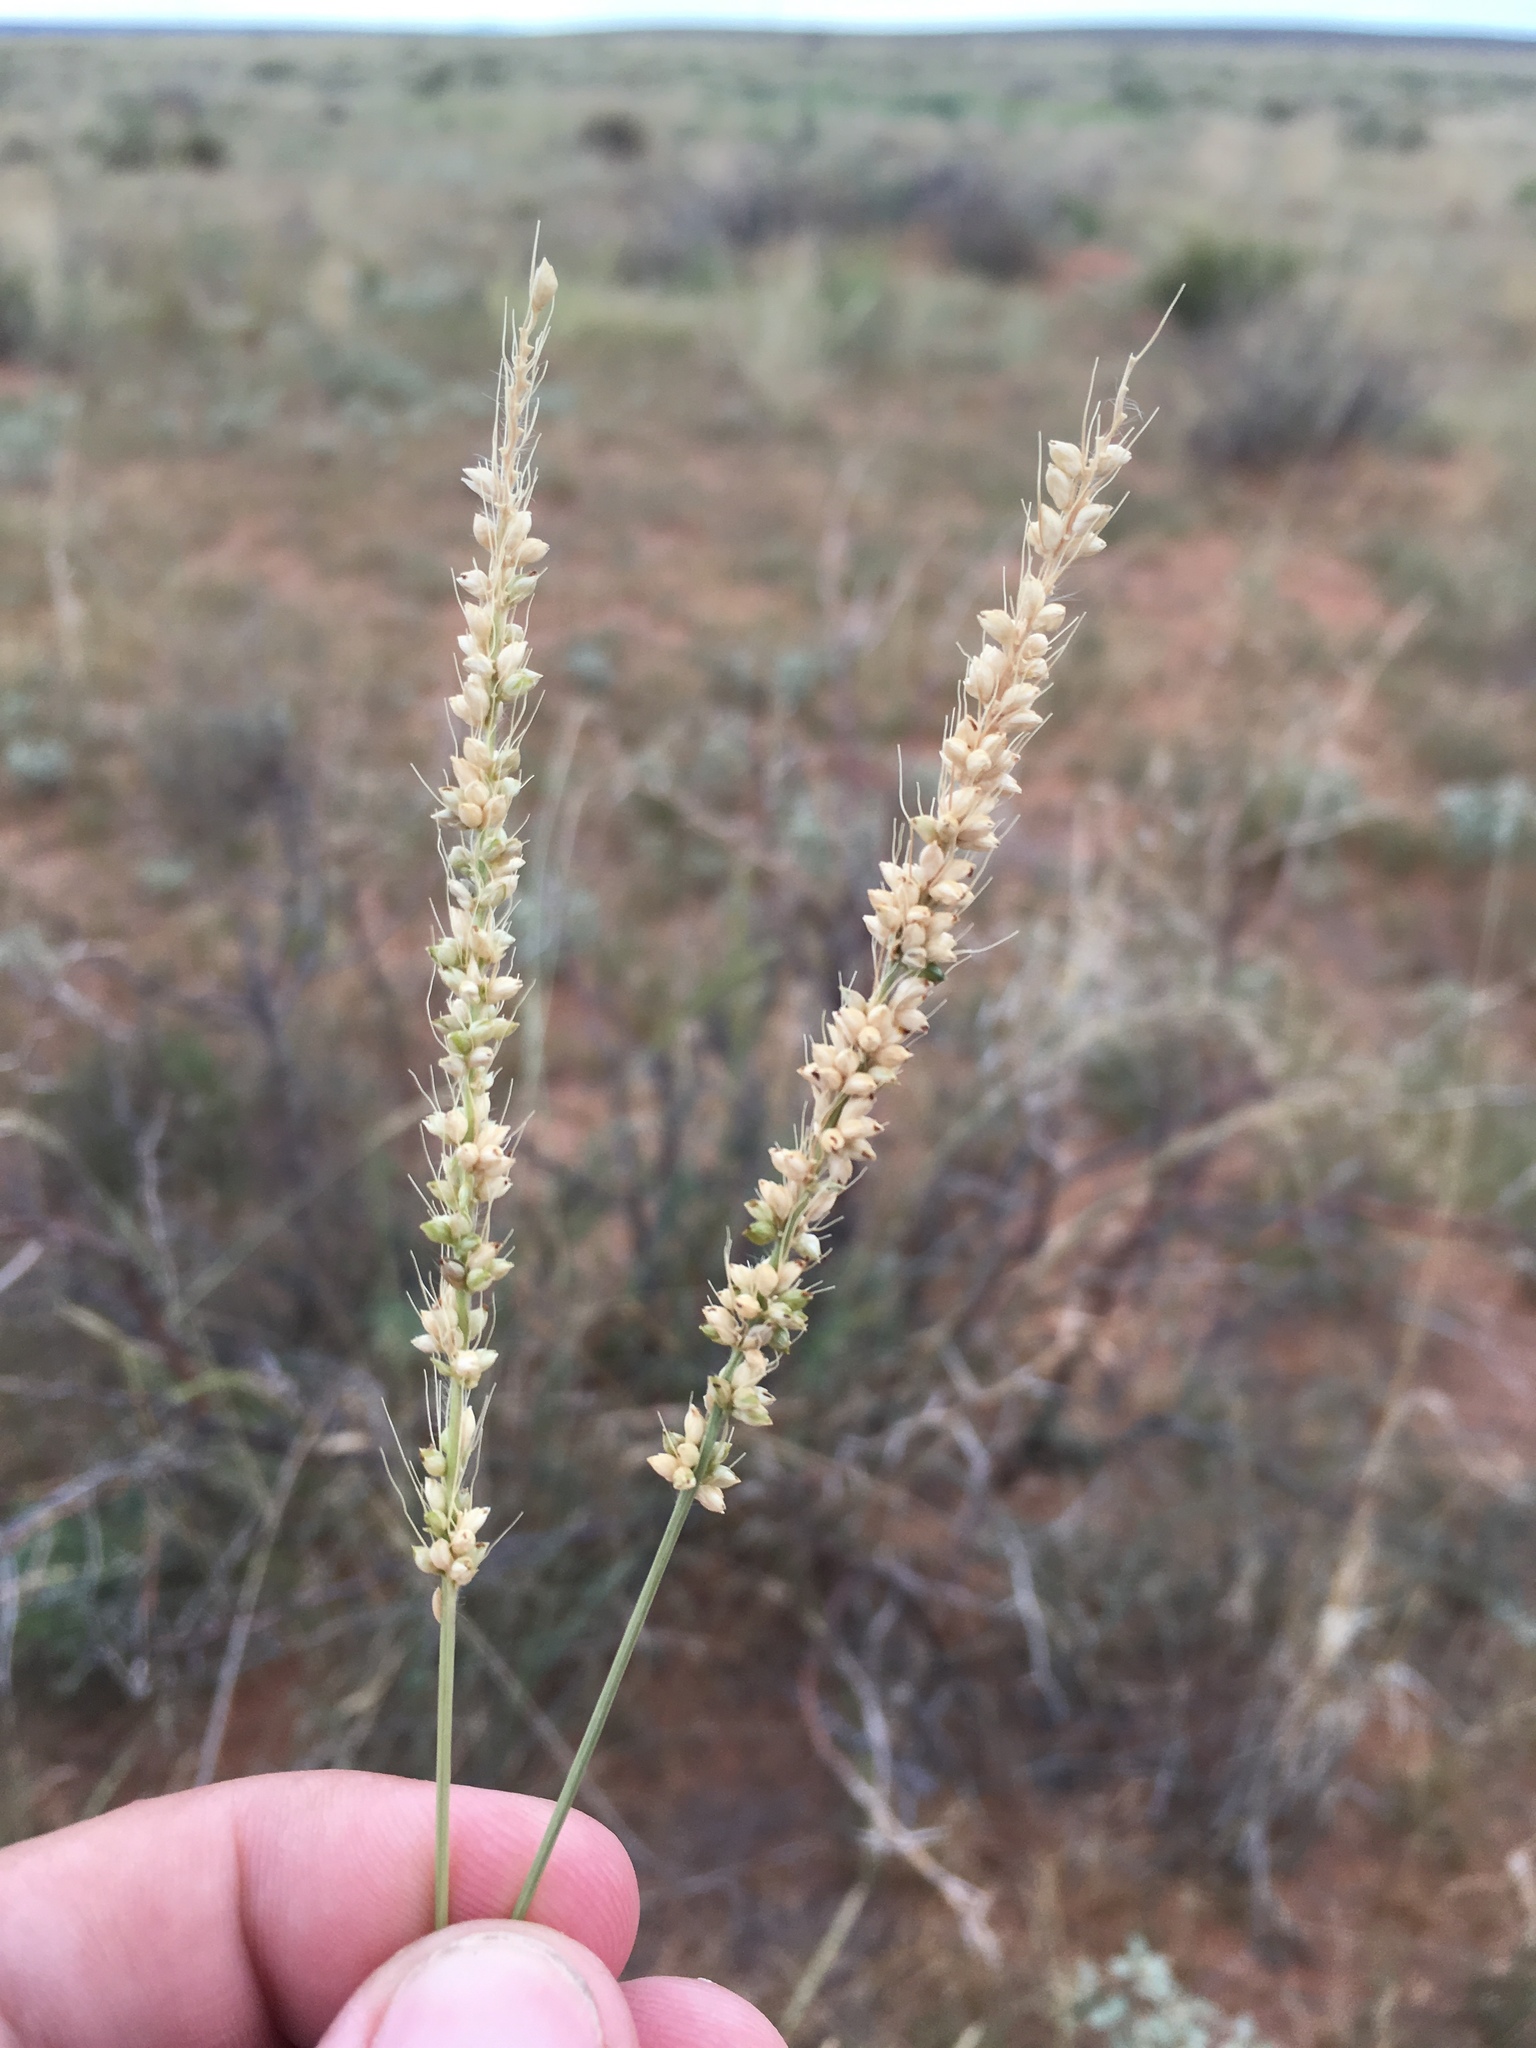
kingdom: Plantae
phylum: Tracheophyta
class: Liliopsida
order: Poales
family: Poaceae
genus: Setaria
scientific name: Setaria leucopila
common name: Plains bristle grass
